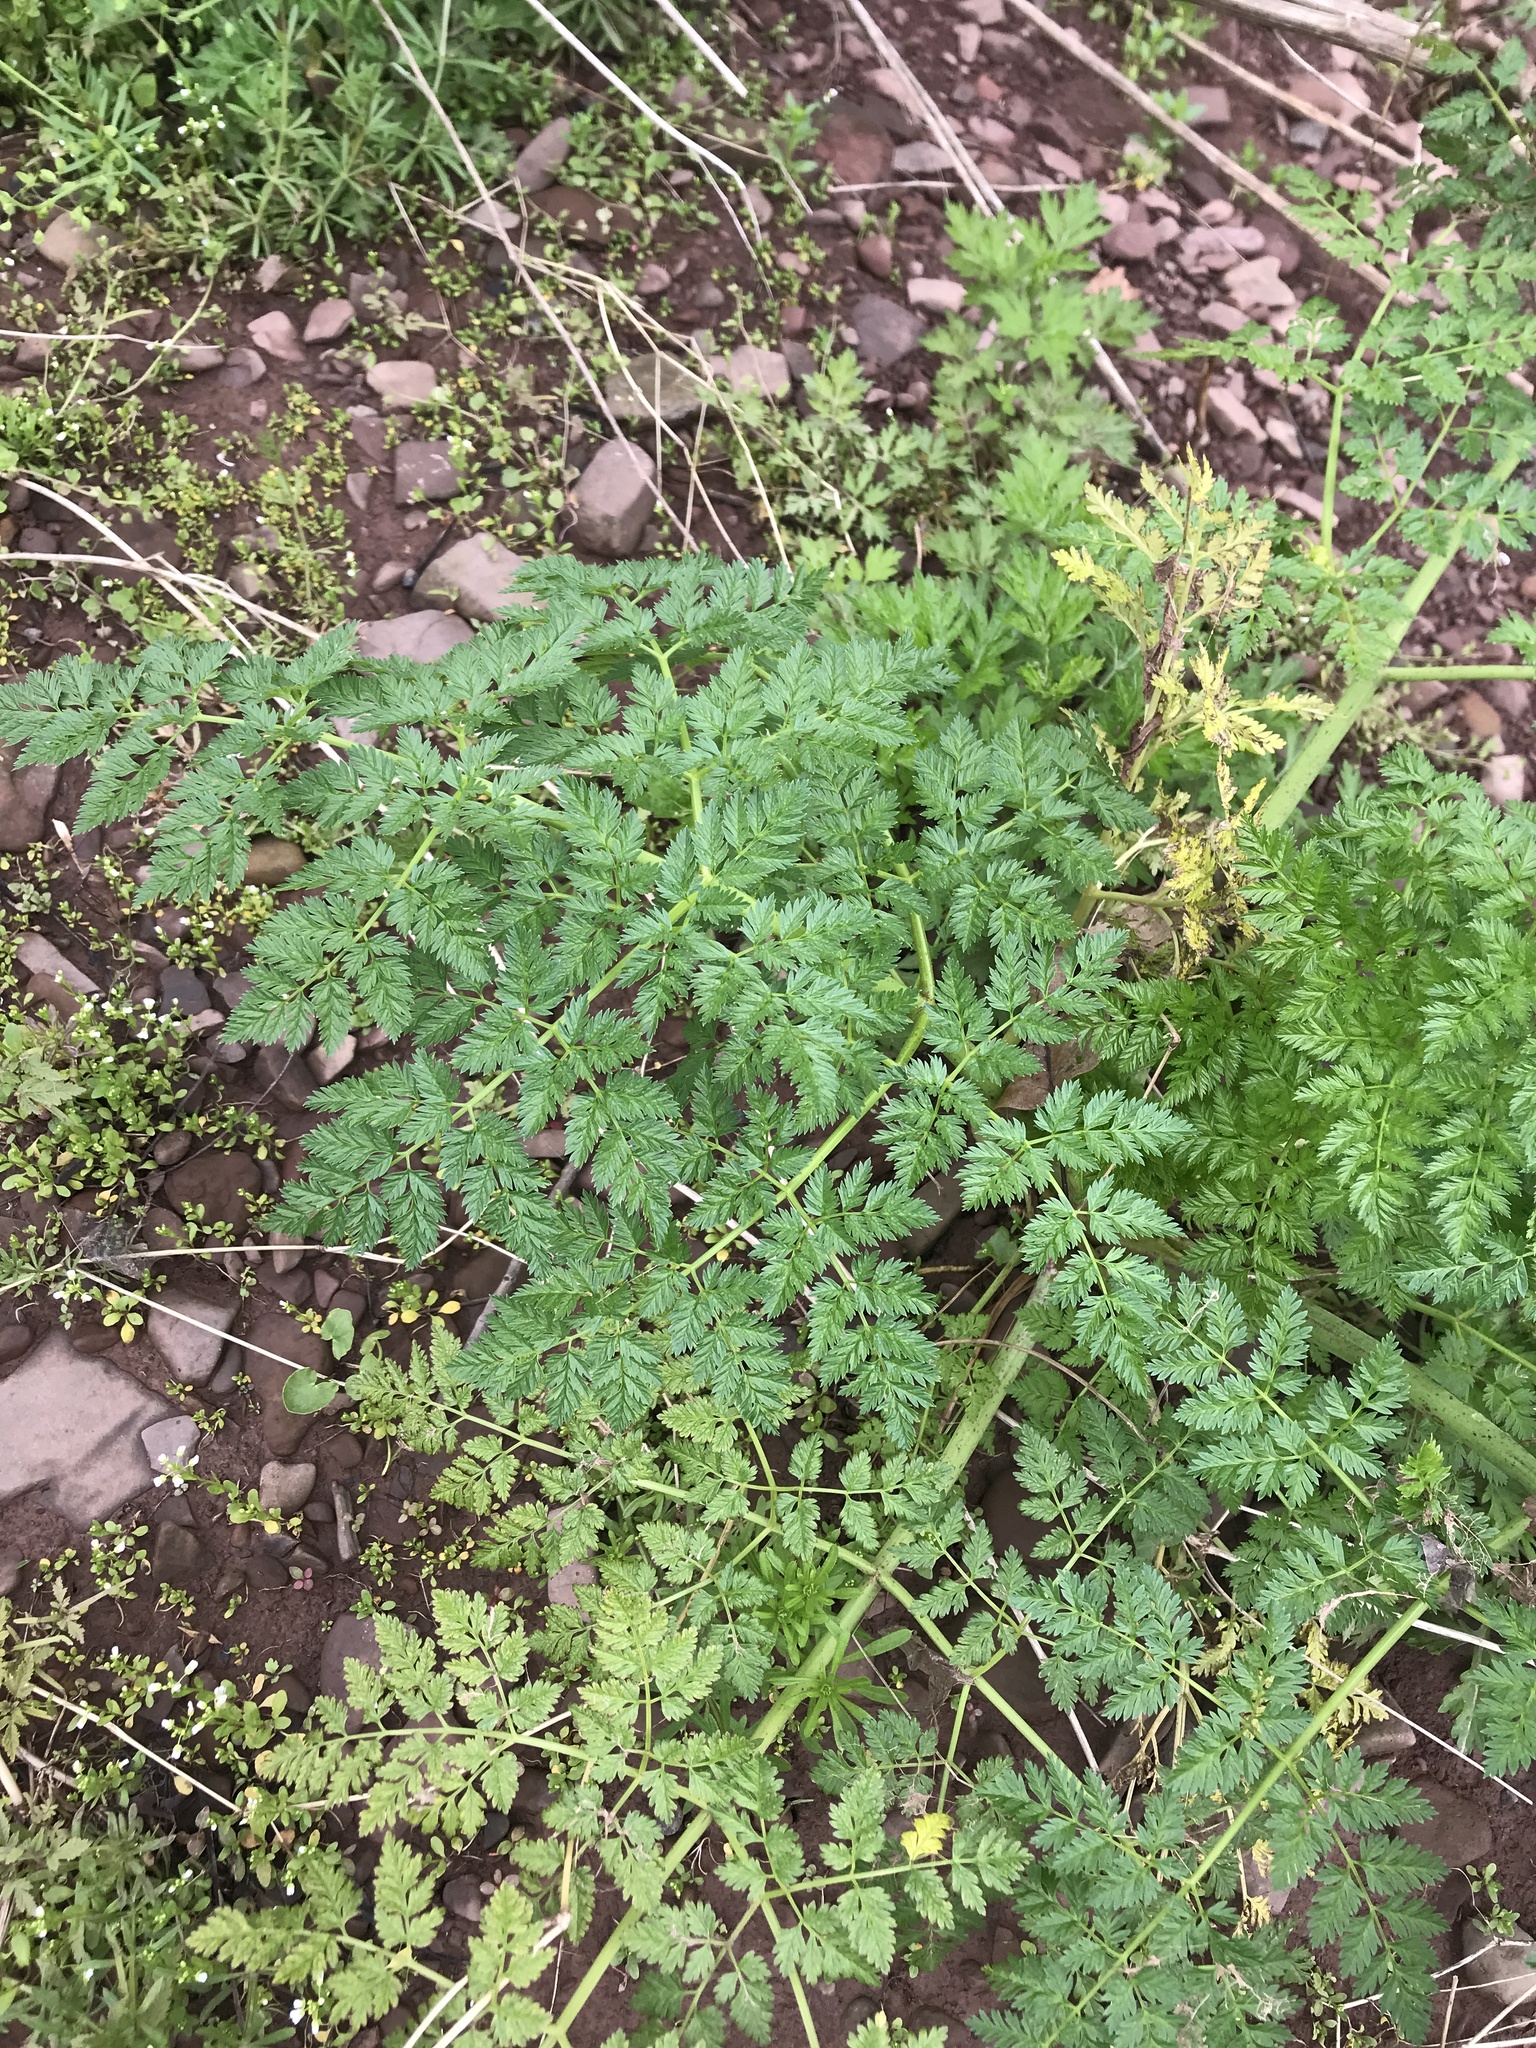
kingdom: Plantae
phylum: Tracheophyta
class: Magnoliopsida
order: Apiales
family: Apiaceae
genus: Conium
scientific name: Conium maculatum
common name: Hemlock
